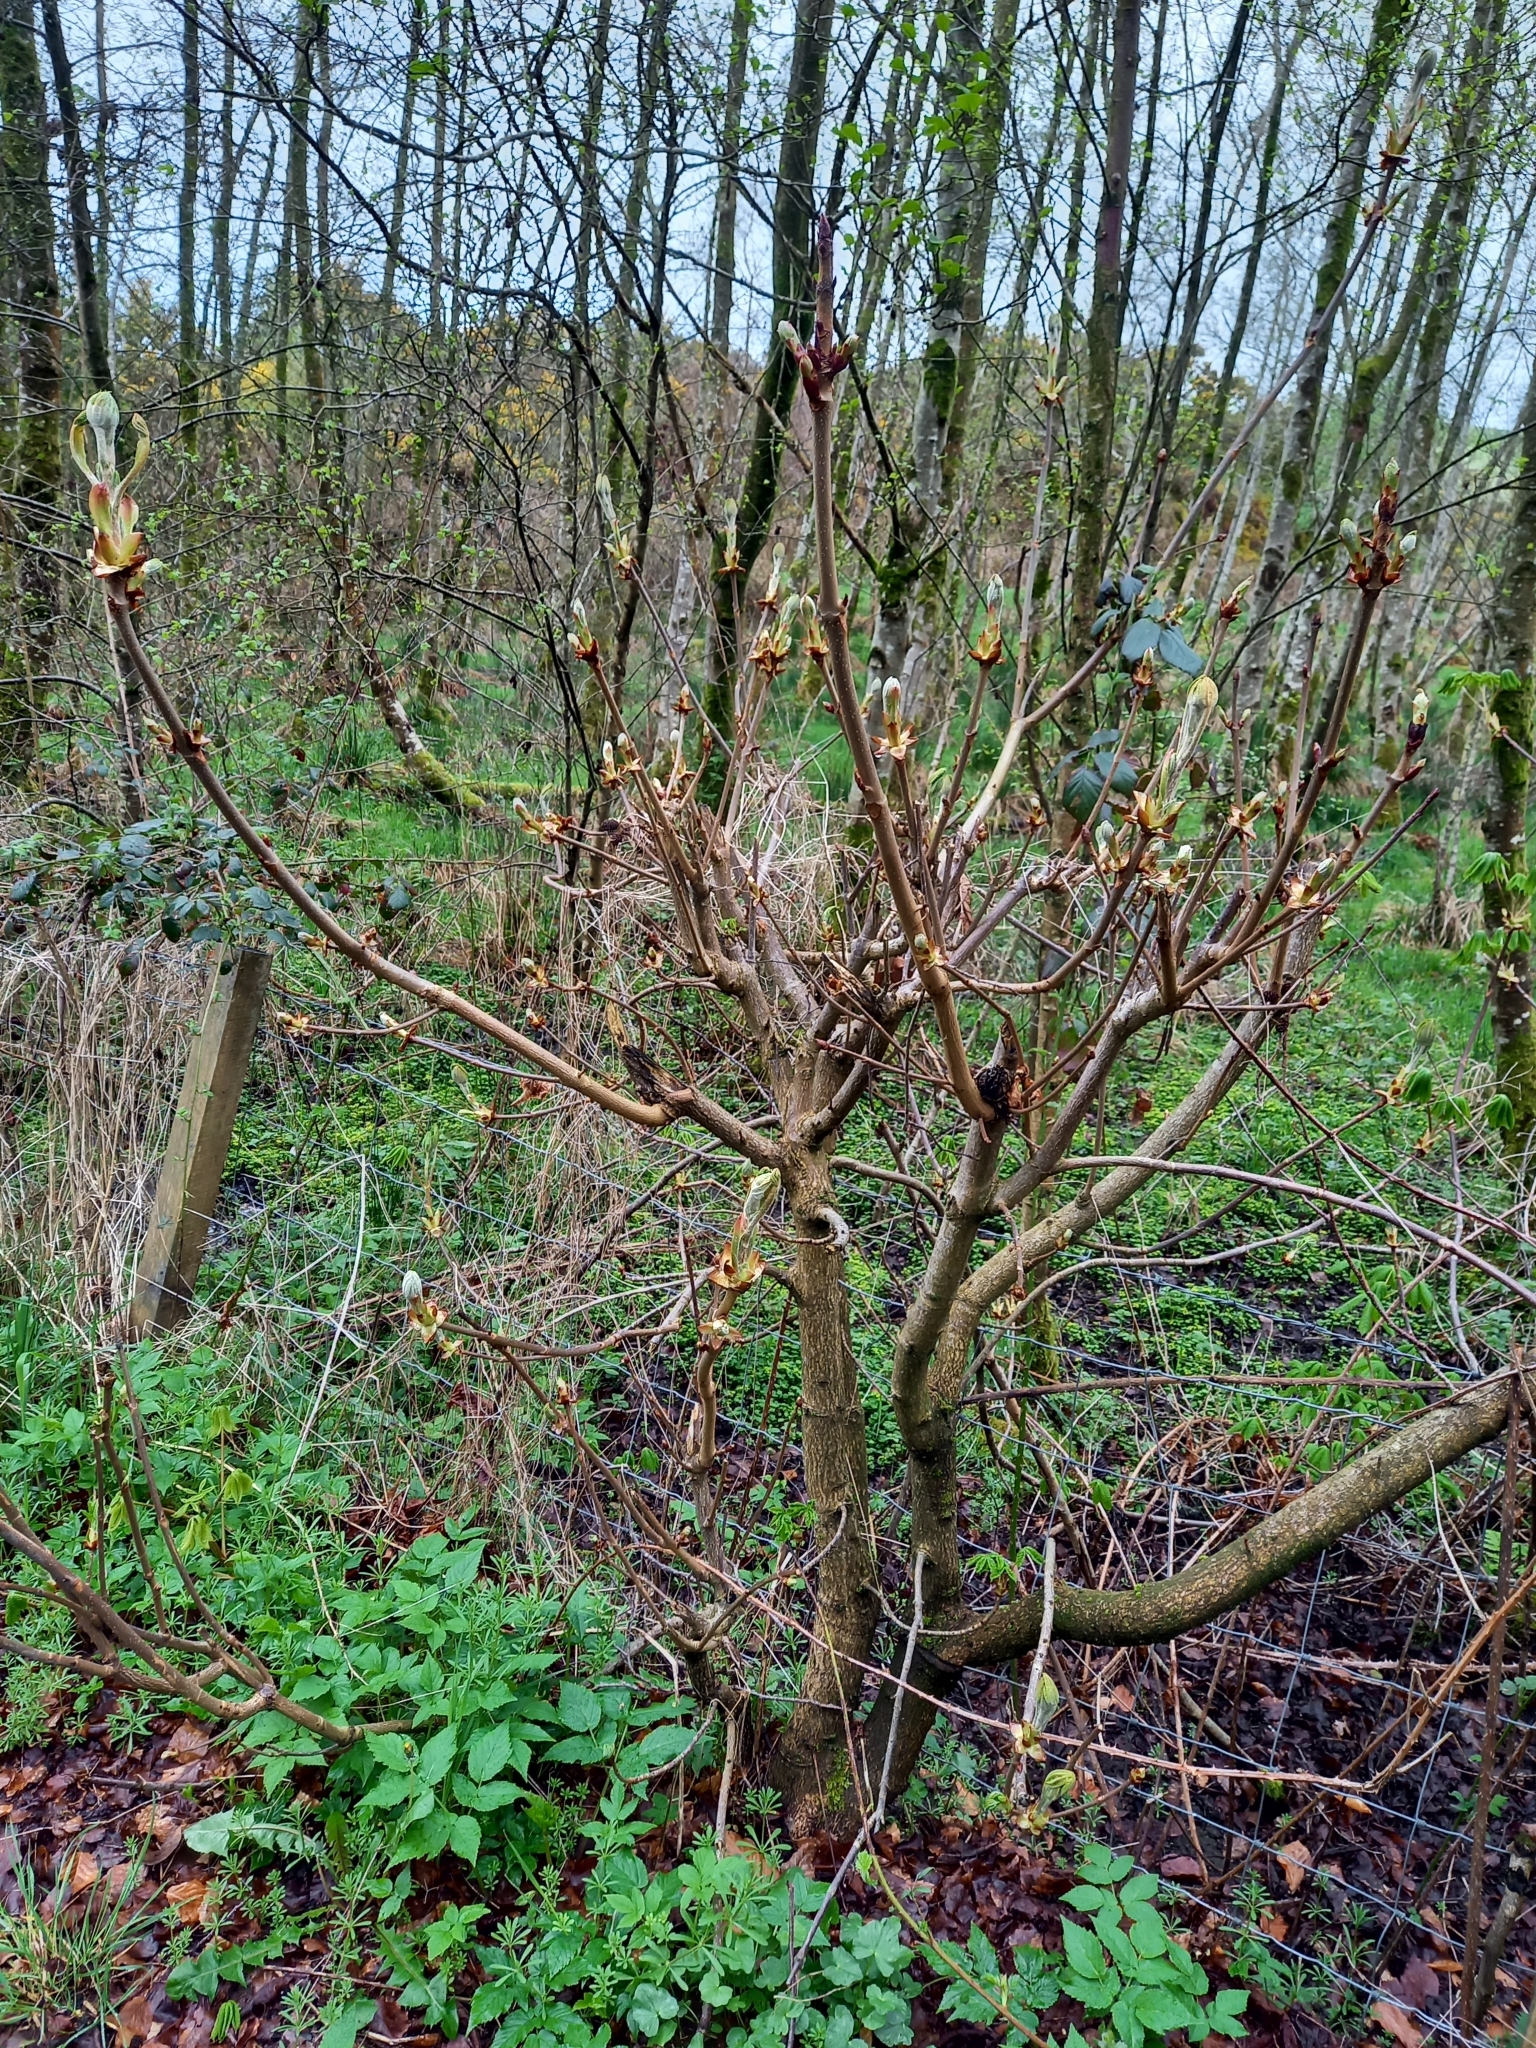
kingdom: Plantae
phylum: Tracheophyta
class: Magnoliopsida
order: Sapindales
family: Sapindaceae
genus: Aesculus
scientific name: Aesculus hippocastanum
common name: Horse-chestnut
